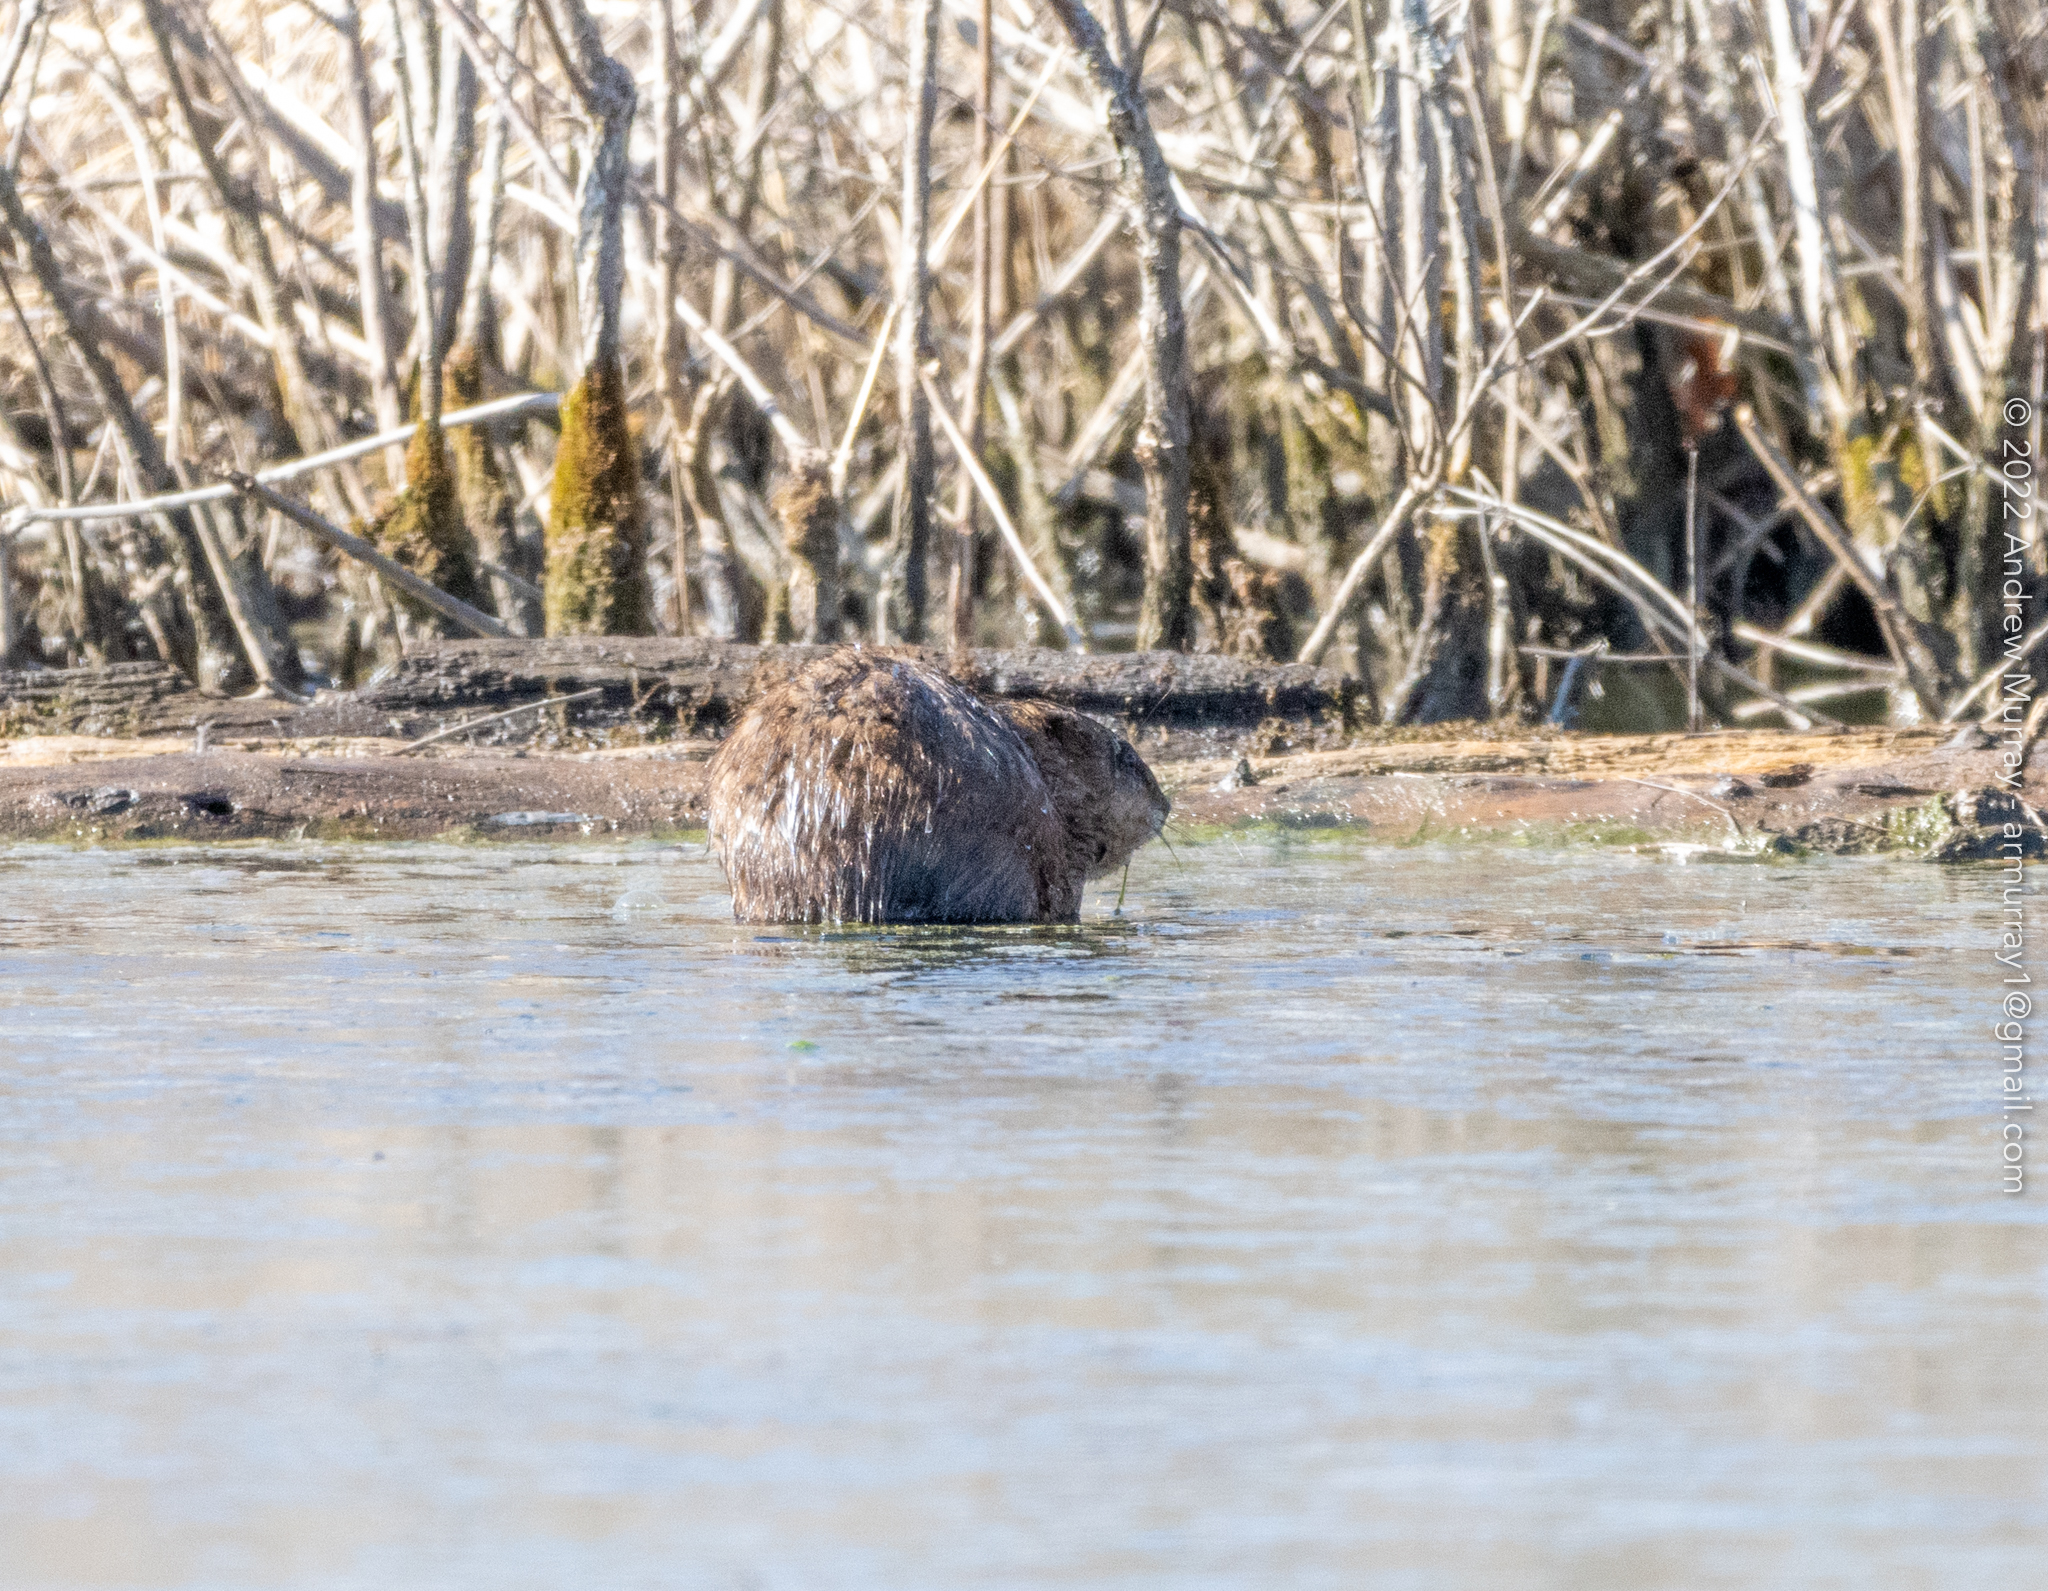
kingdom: Animalia
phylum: Chordata
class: Mammalia
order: Rodentia
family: Cricetidae
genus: Ondatra
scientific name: Ondatra zibethicus
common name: Muskrat
